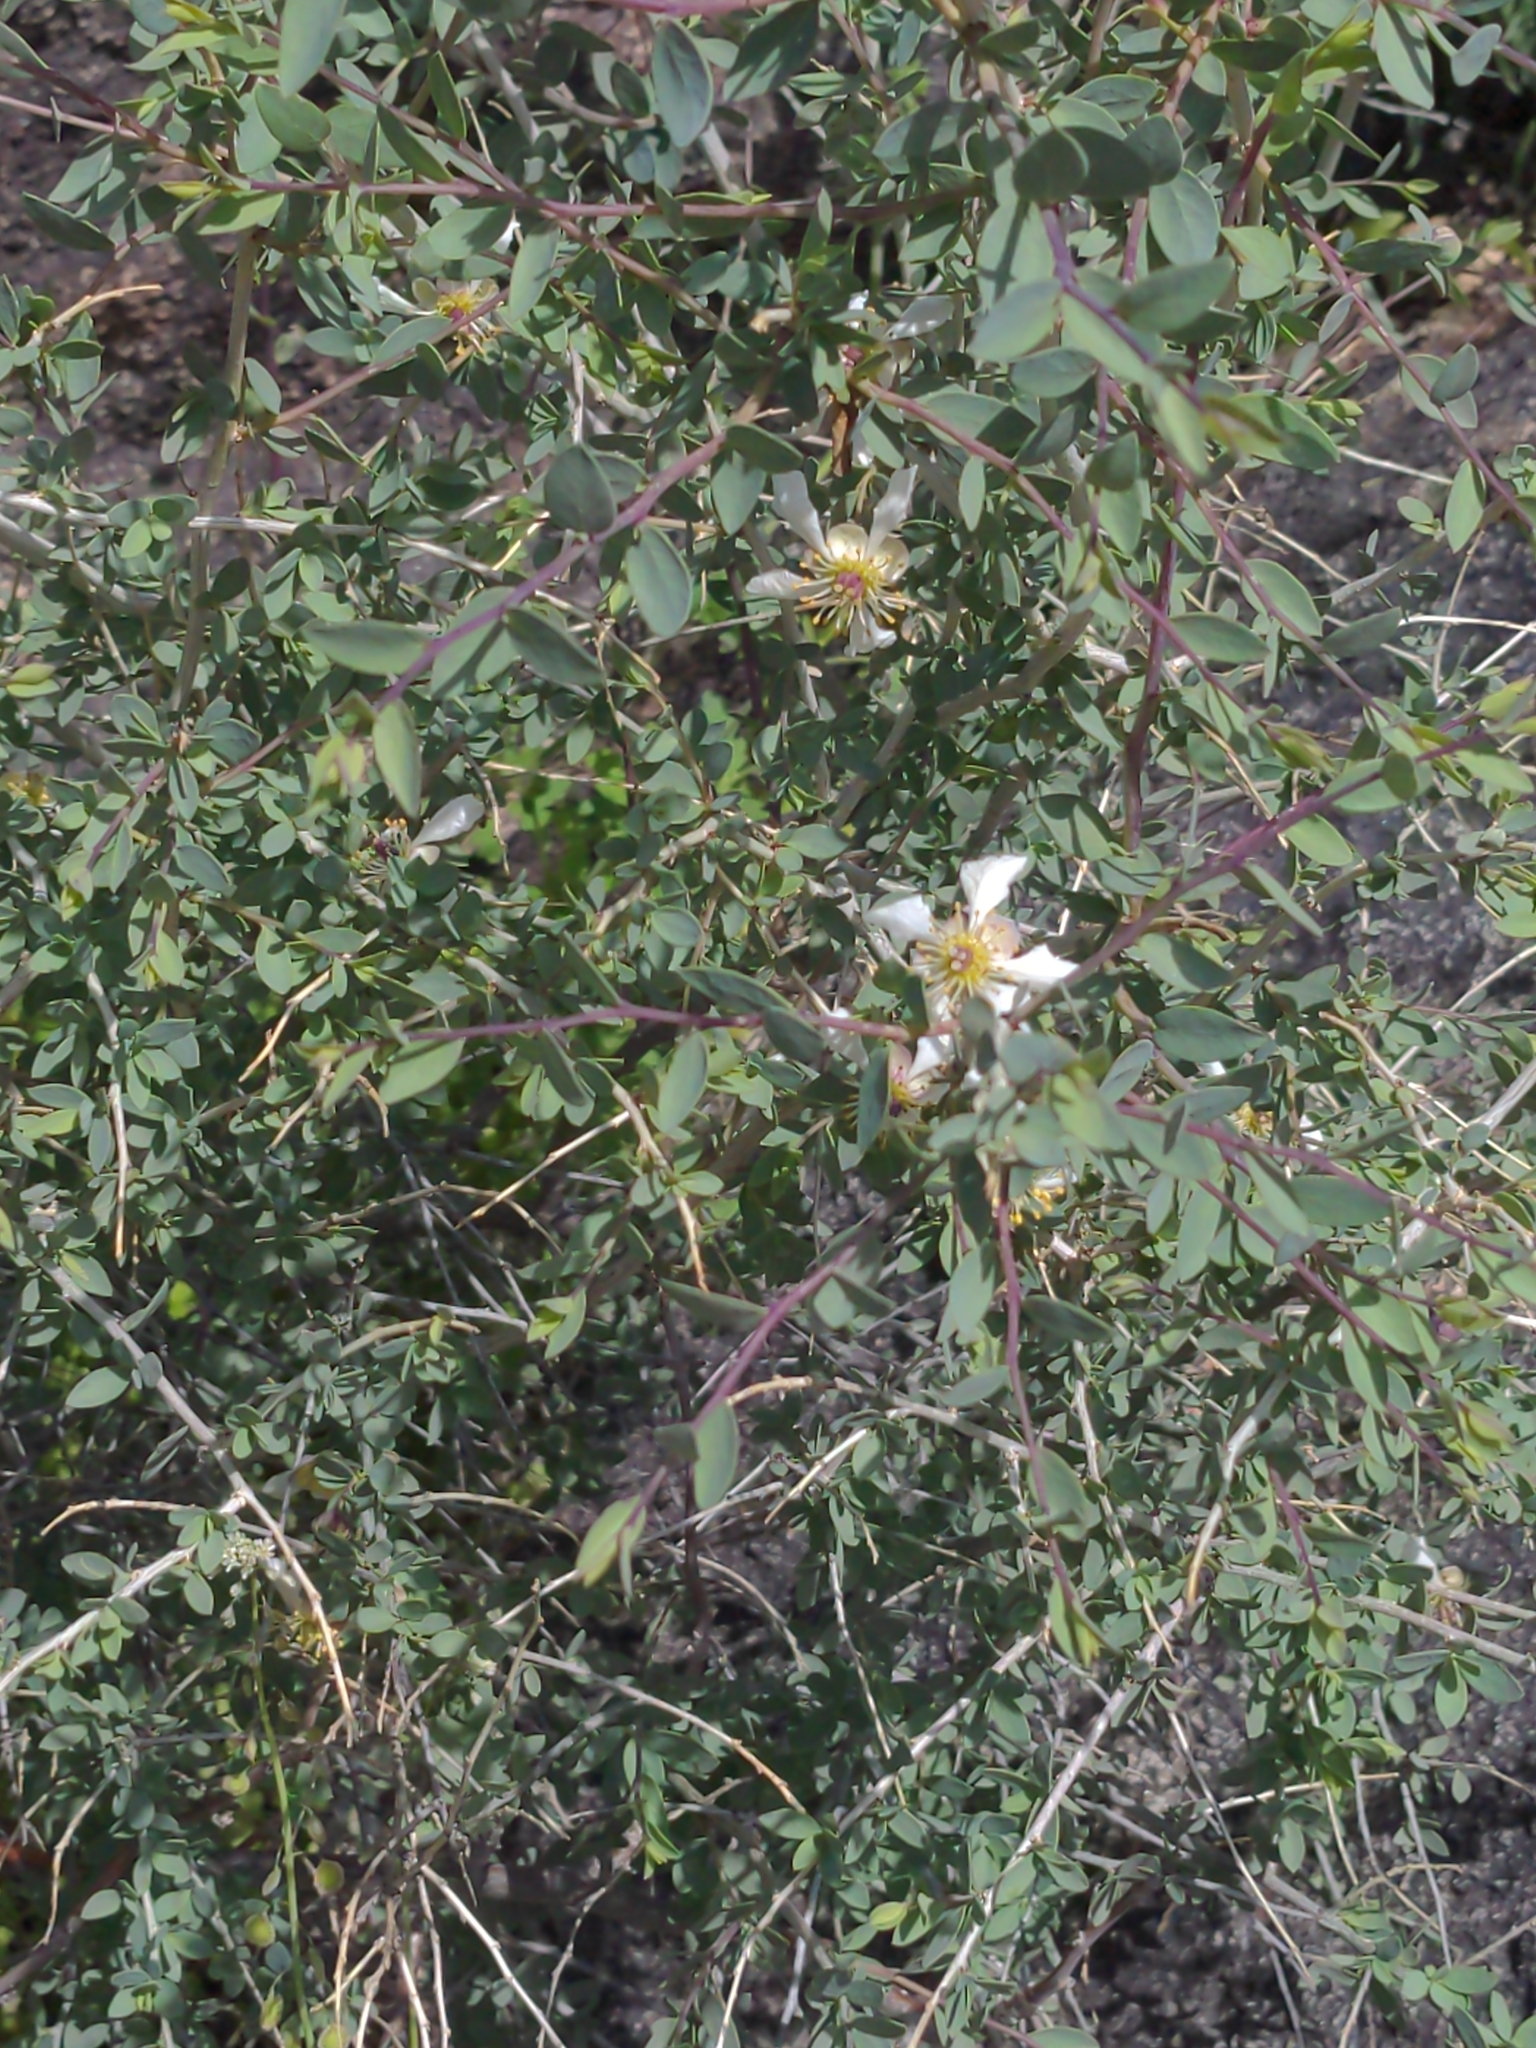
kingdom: Plantae
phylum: Tracheophyta
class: Magnoliopsida
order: Crossosomatales
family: Crossosomataceae
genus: Crossosoma
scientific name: Crossosoma bigelovii
